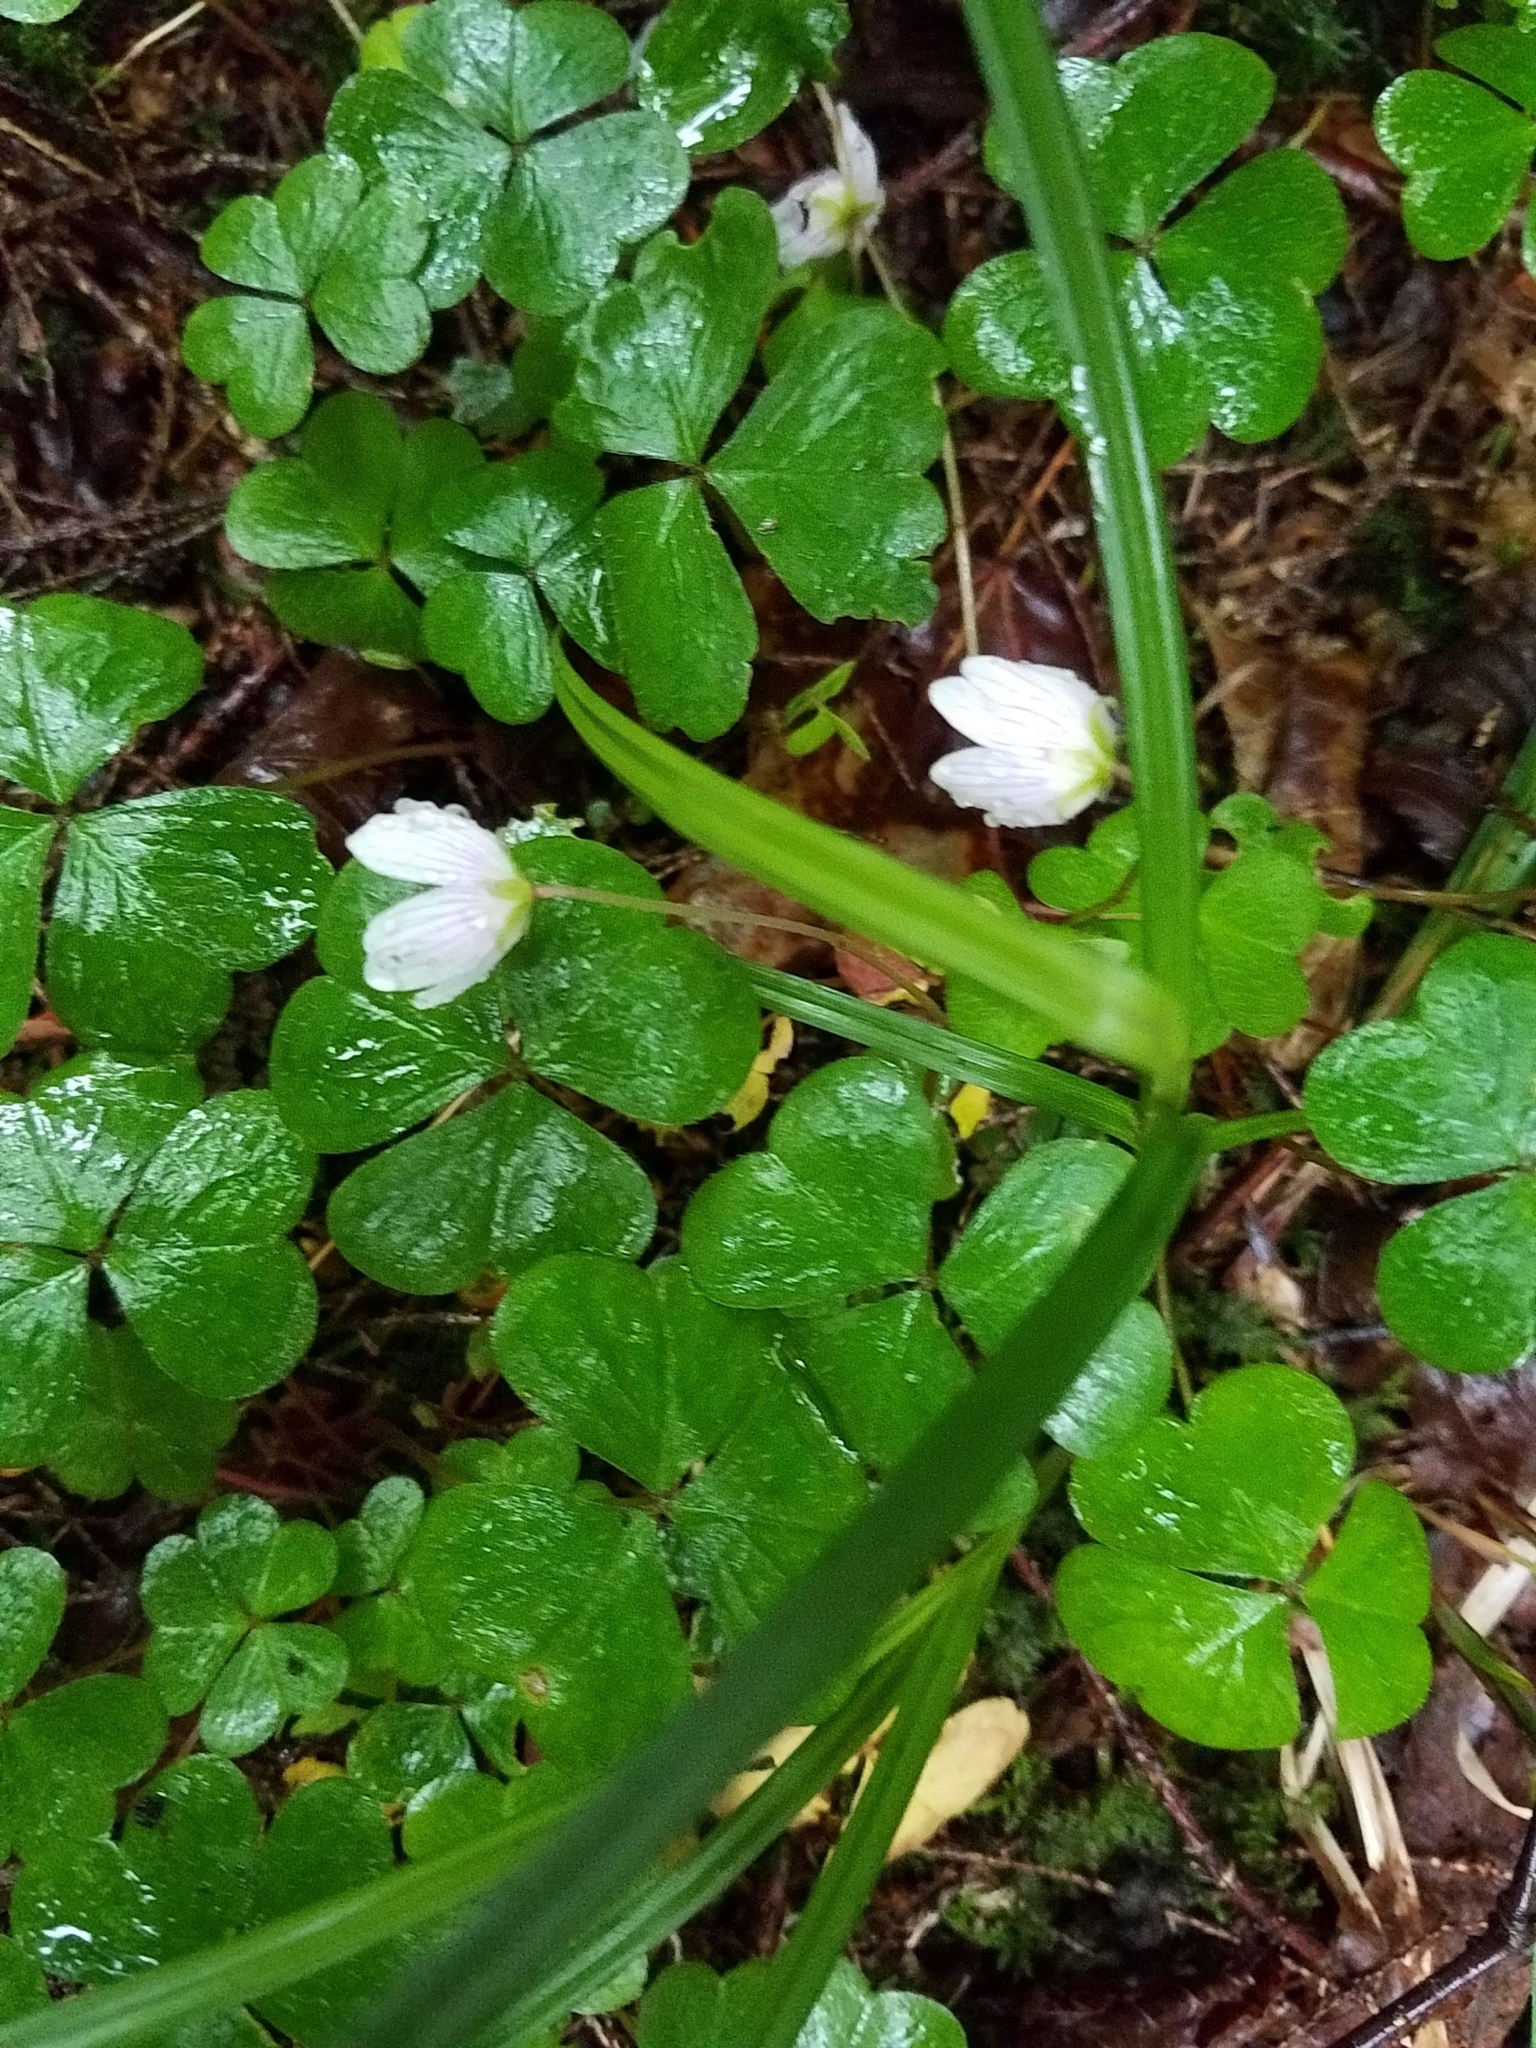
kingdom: Plantae
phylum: Tracheophyta
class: Magnoliopsida
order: Oxalidales
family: Oxalidaceae
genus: Oxalis
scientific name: Oxalis montana
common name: American wood-sorrel
